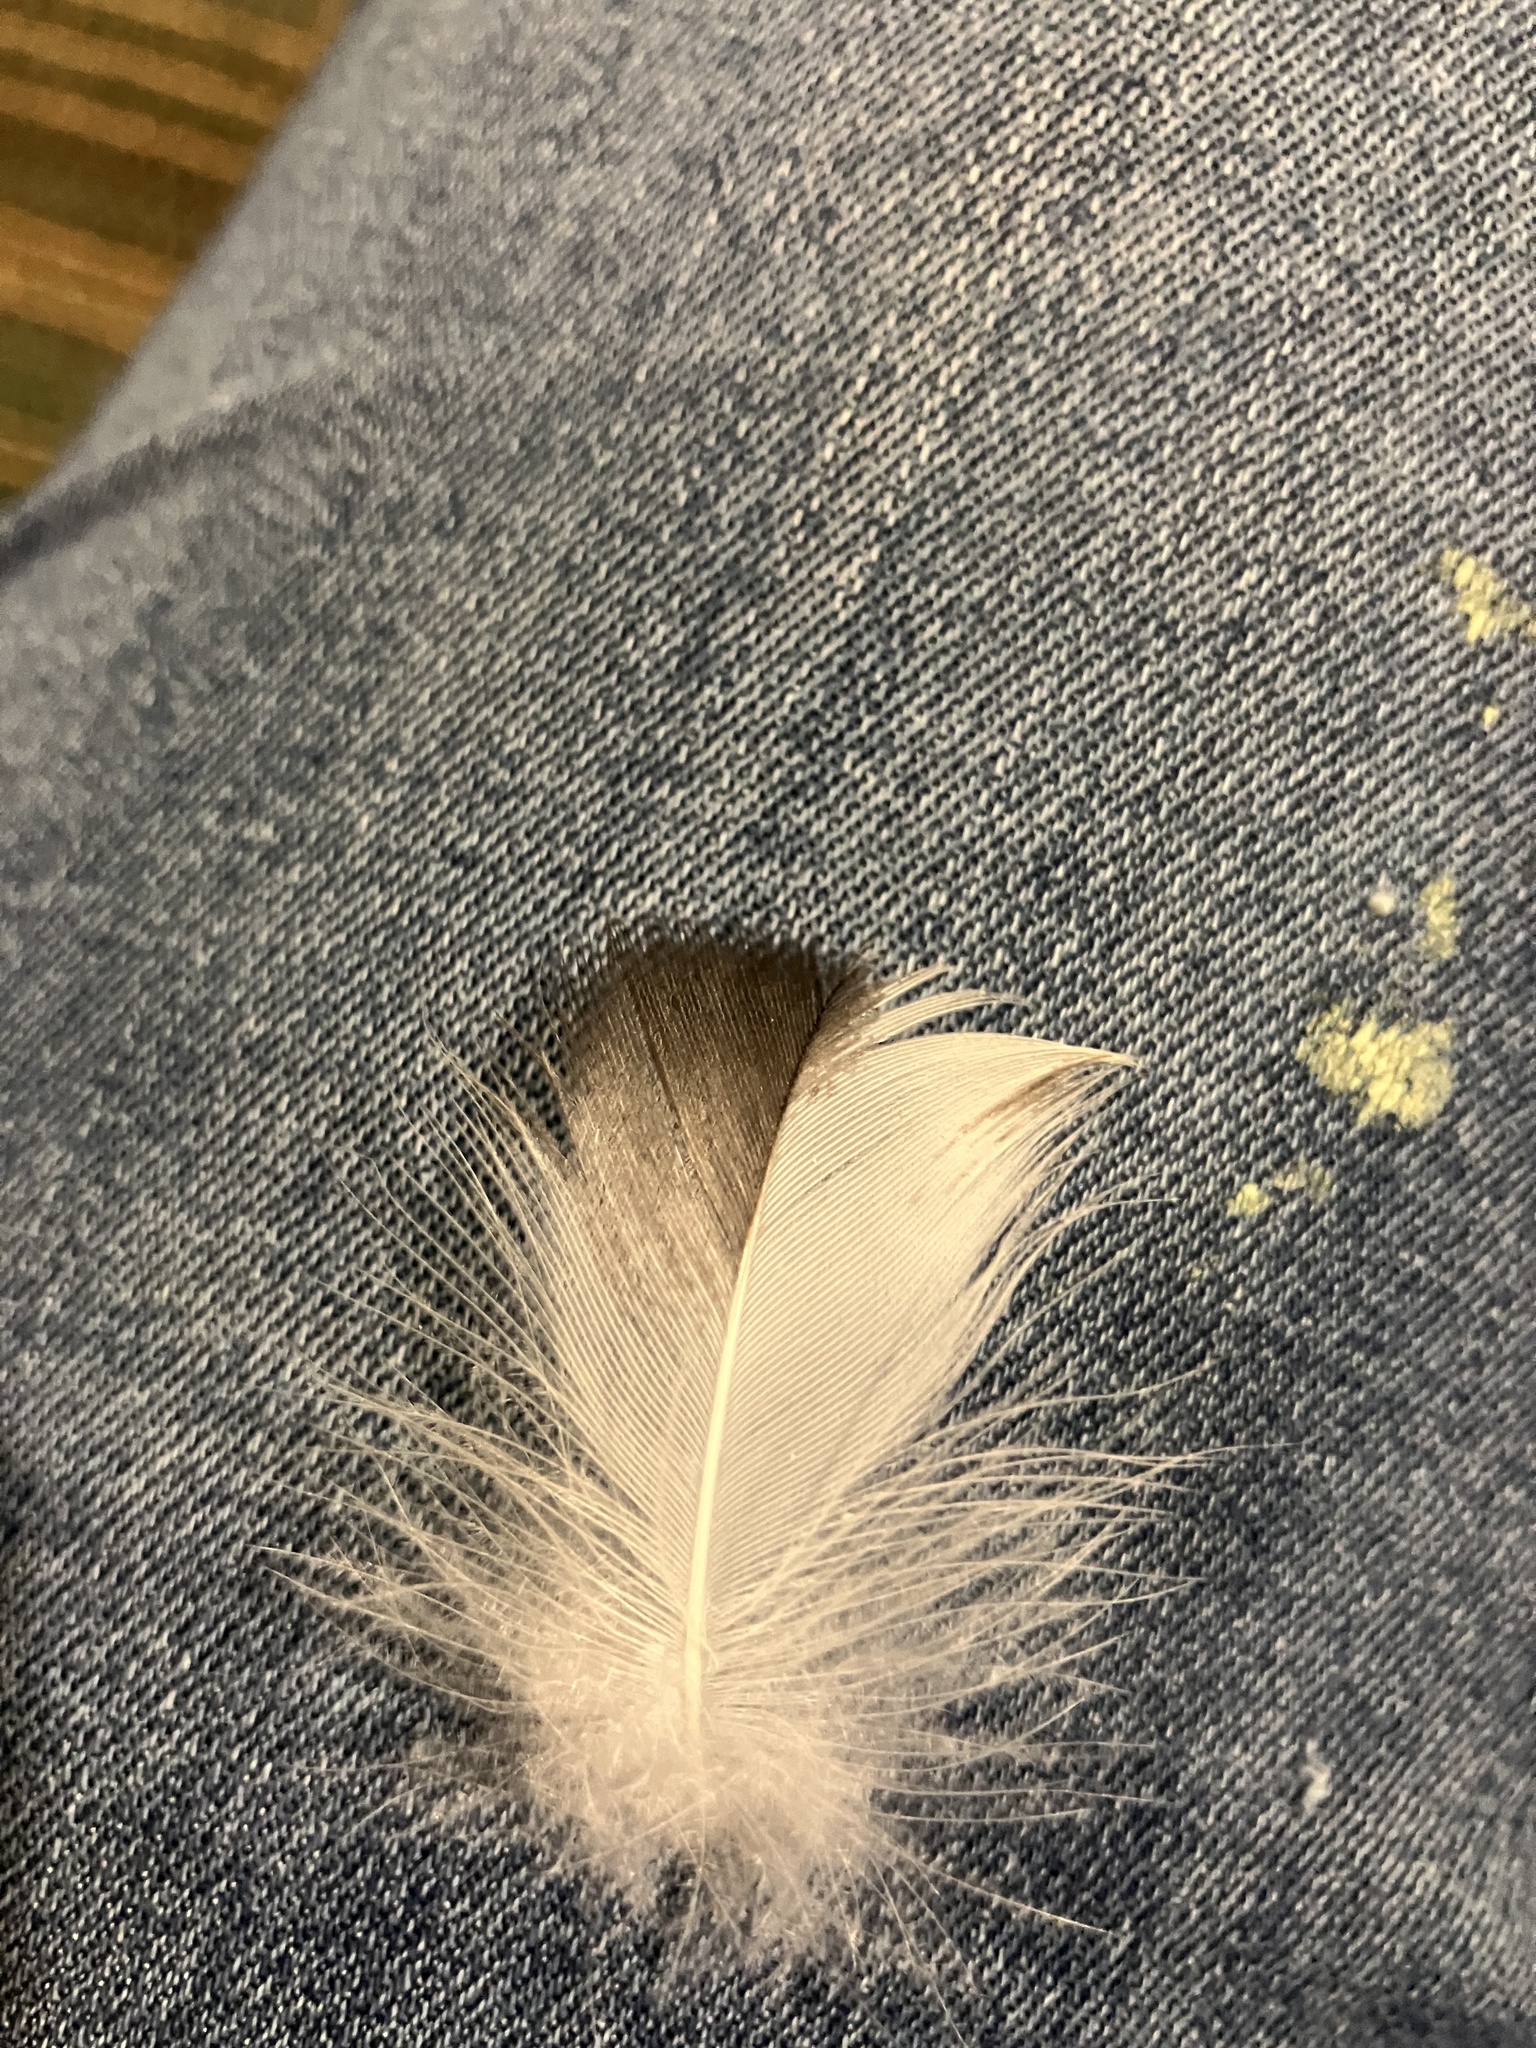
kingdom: Animalia
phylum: Chordata
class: Aves
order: Pelecaniformes
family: Threskiornithidae
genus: Eudocimus
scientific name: Eudocimus albus
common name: White ibis
